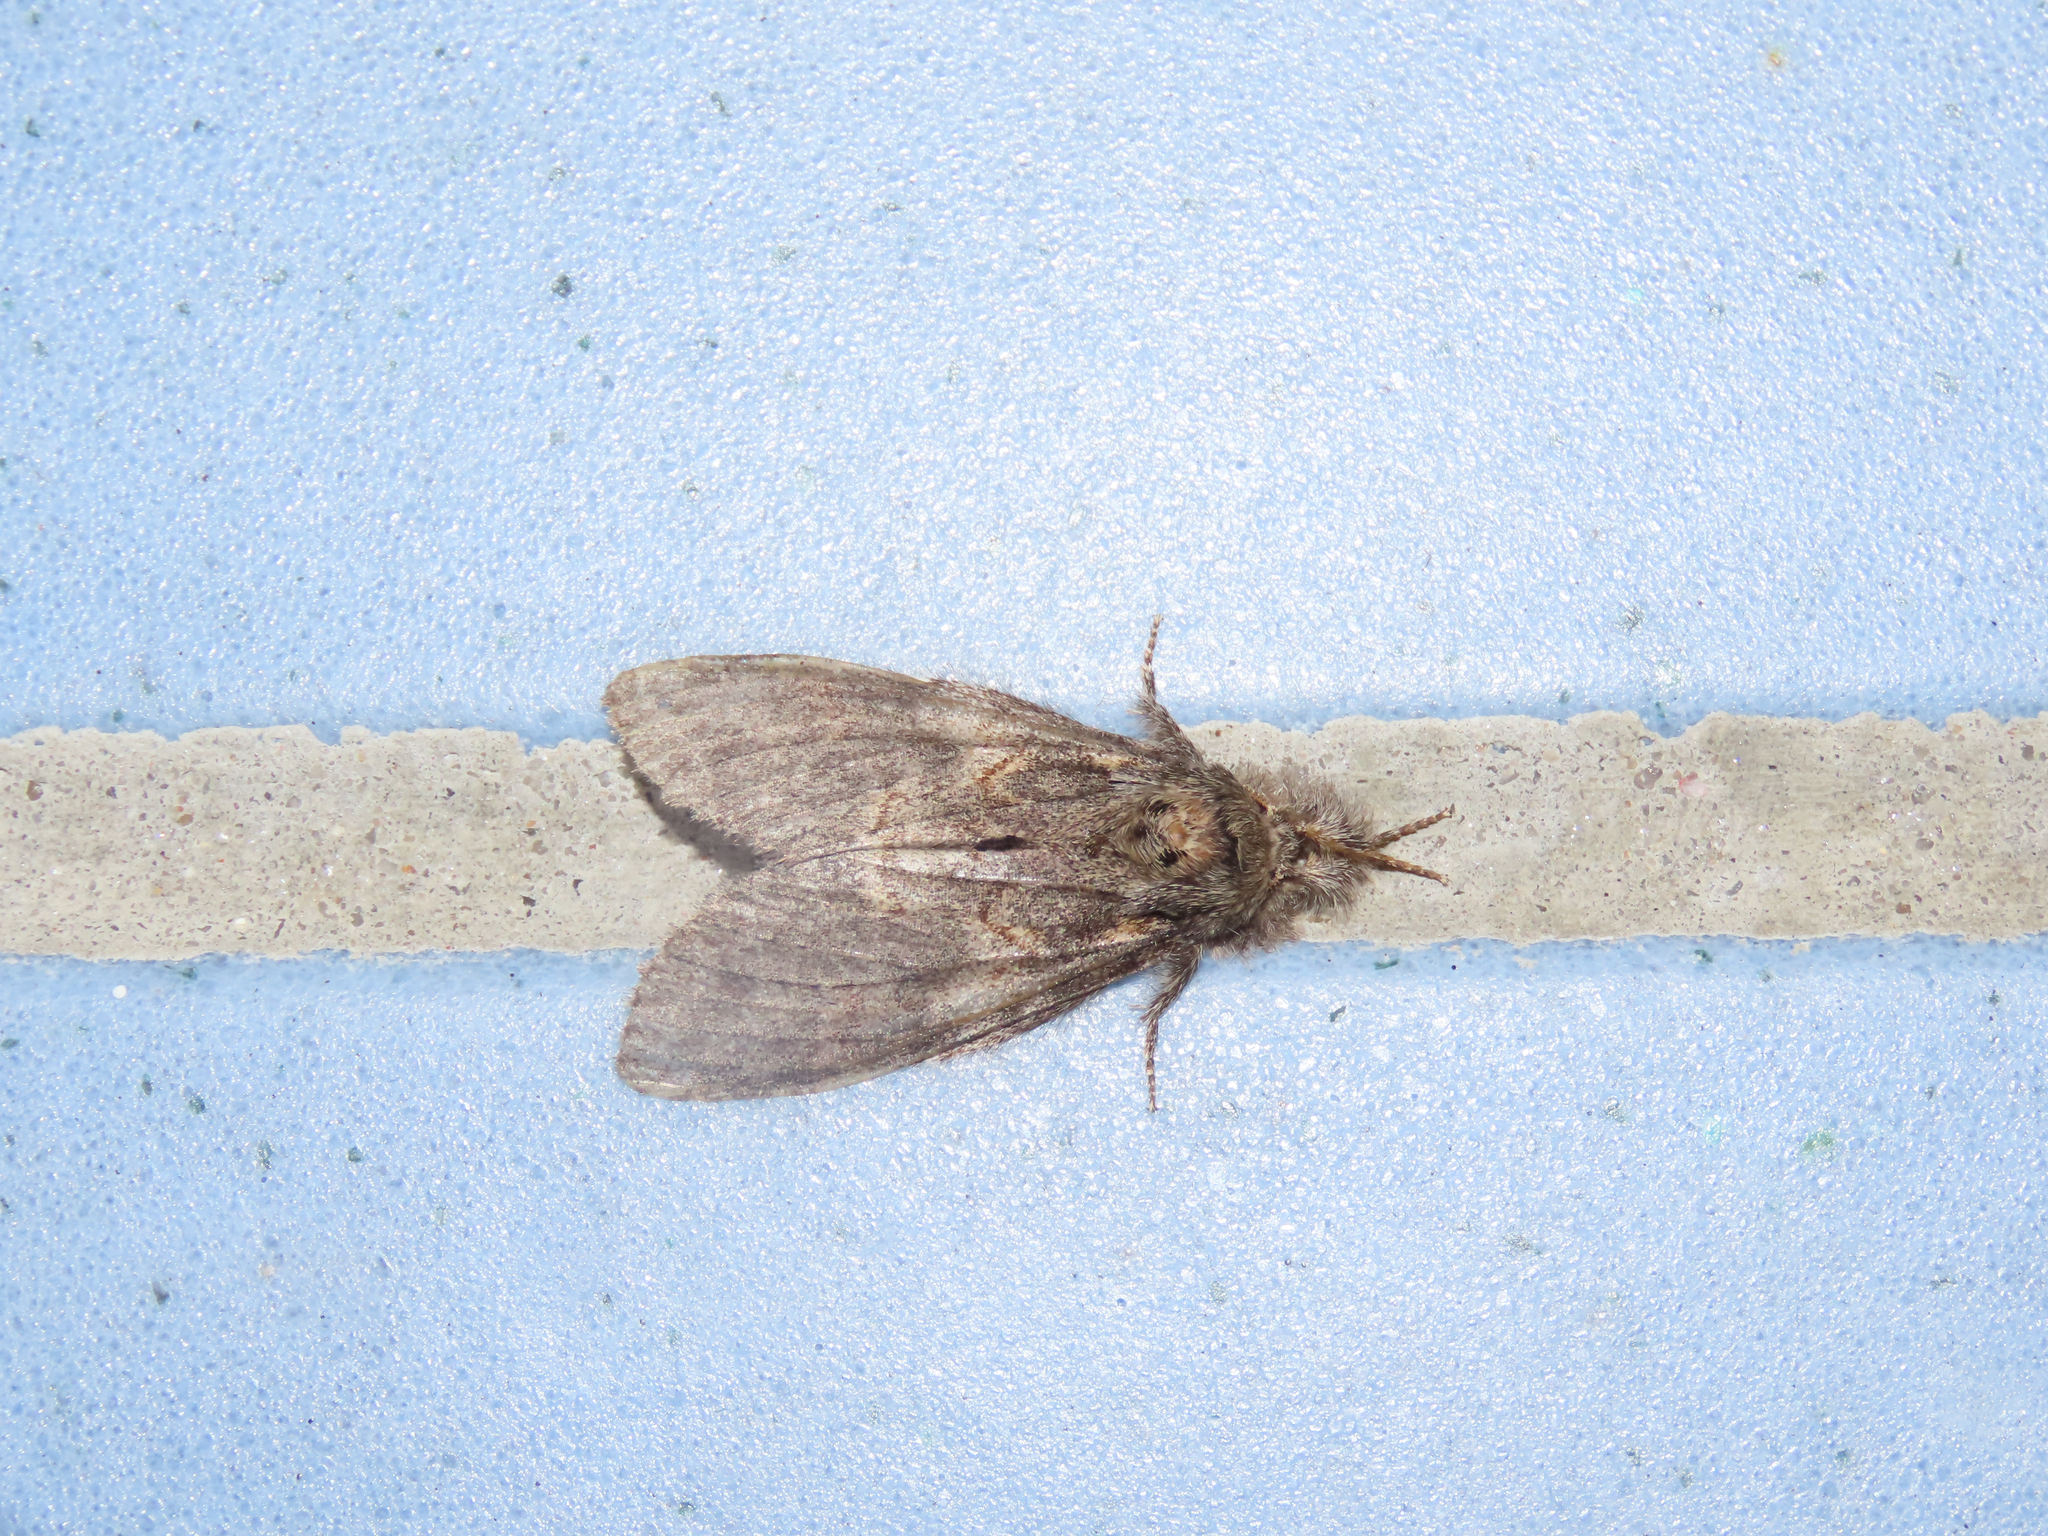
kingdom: Animalia
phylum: Arthropoda
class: Insecta
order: Lepidoptera
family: Notodontidae
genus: Peridea
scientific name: Peridea angulosa
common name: Angulose prominent
